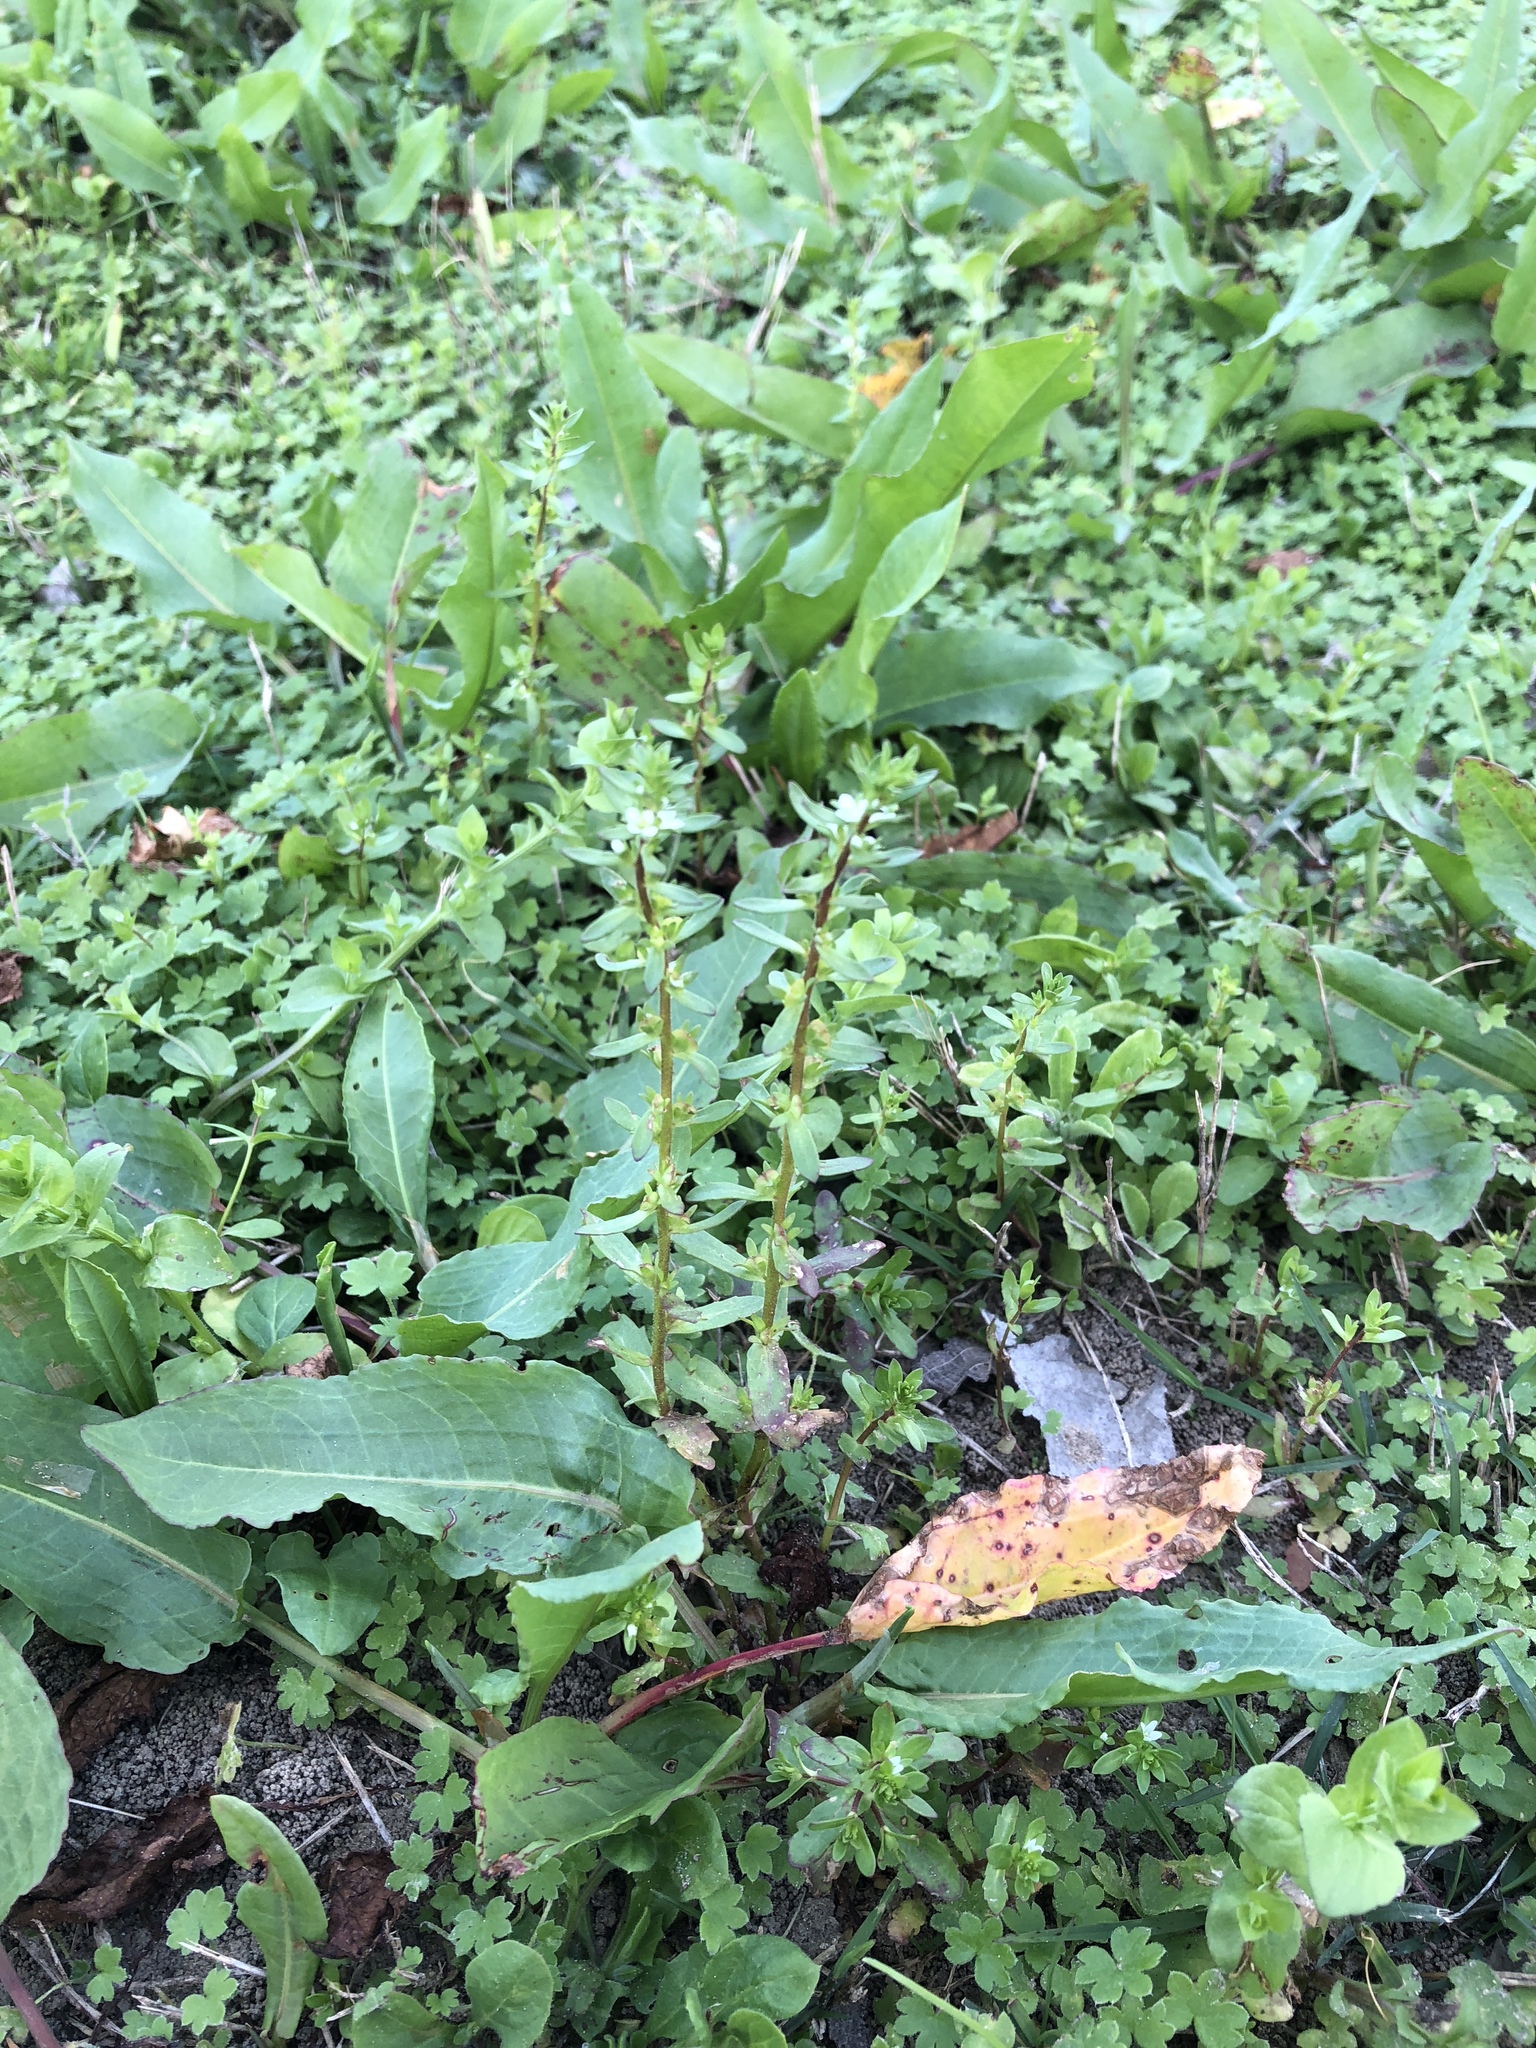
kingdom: Plantae
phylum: Tracheophyta
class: Magnoliopsida
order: Lamiales
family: Plantaginaceae
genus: Veronica
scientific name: Veronica peregrina
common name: Neckweed
